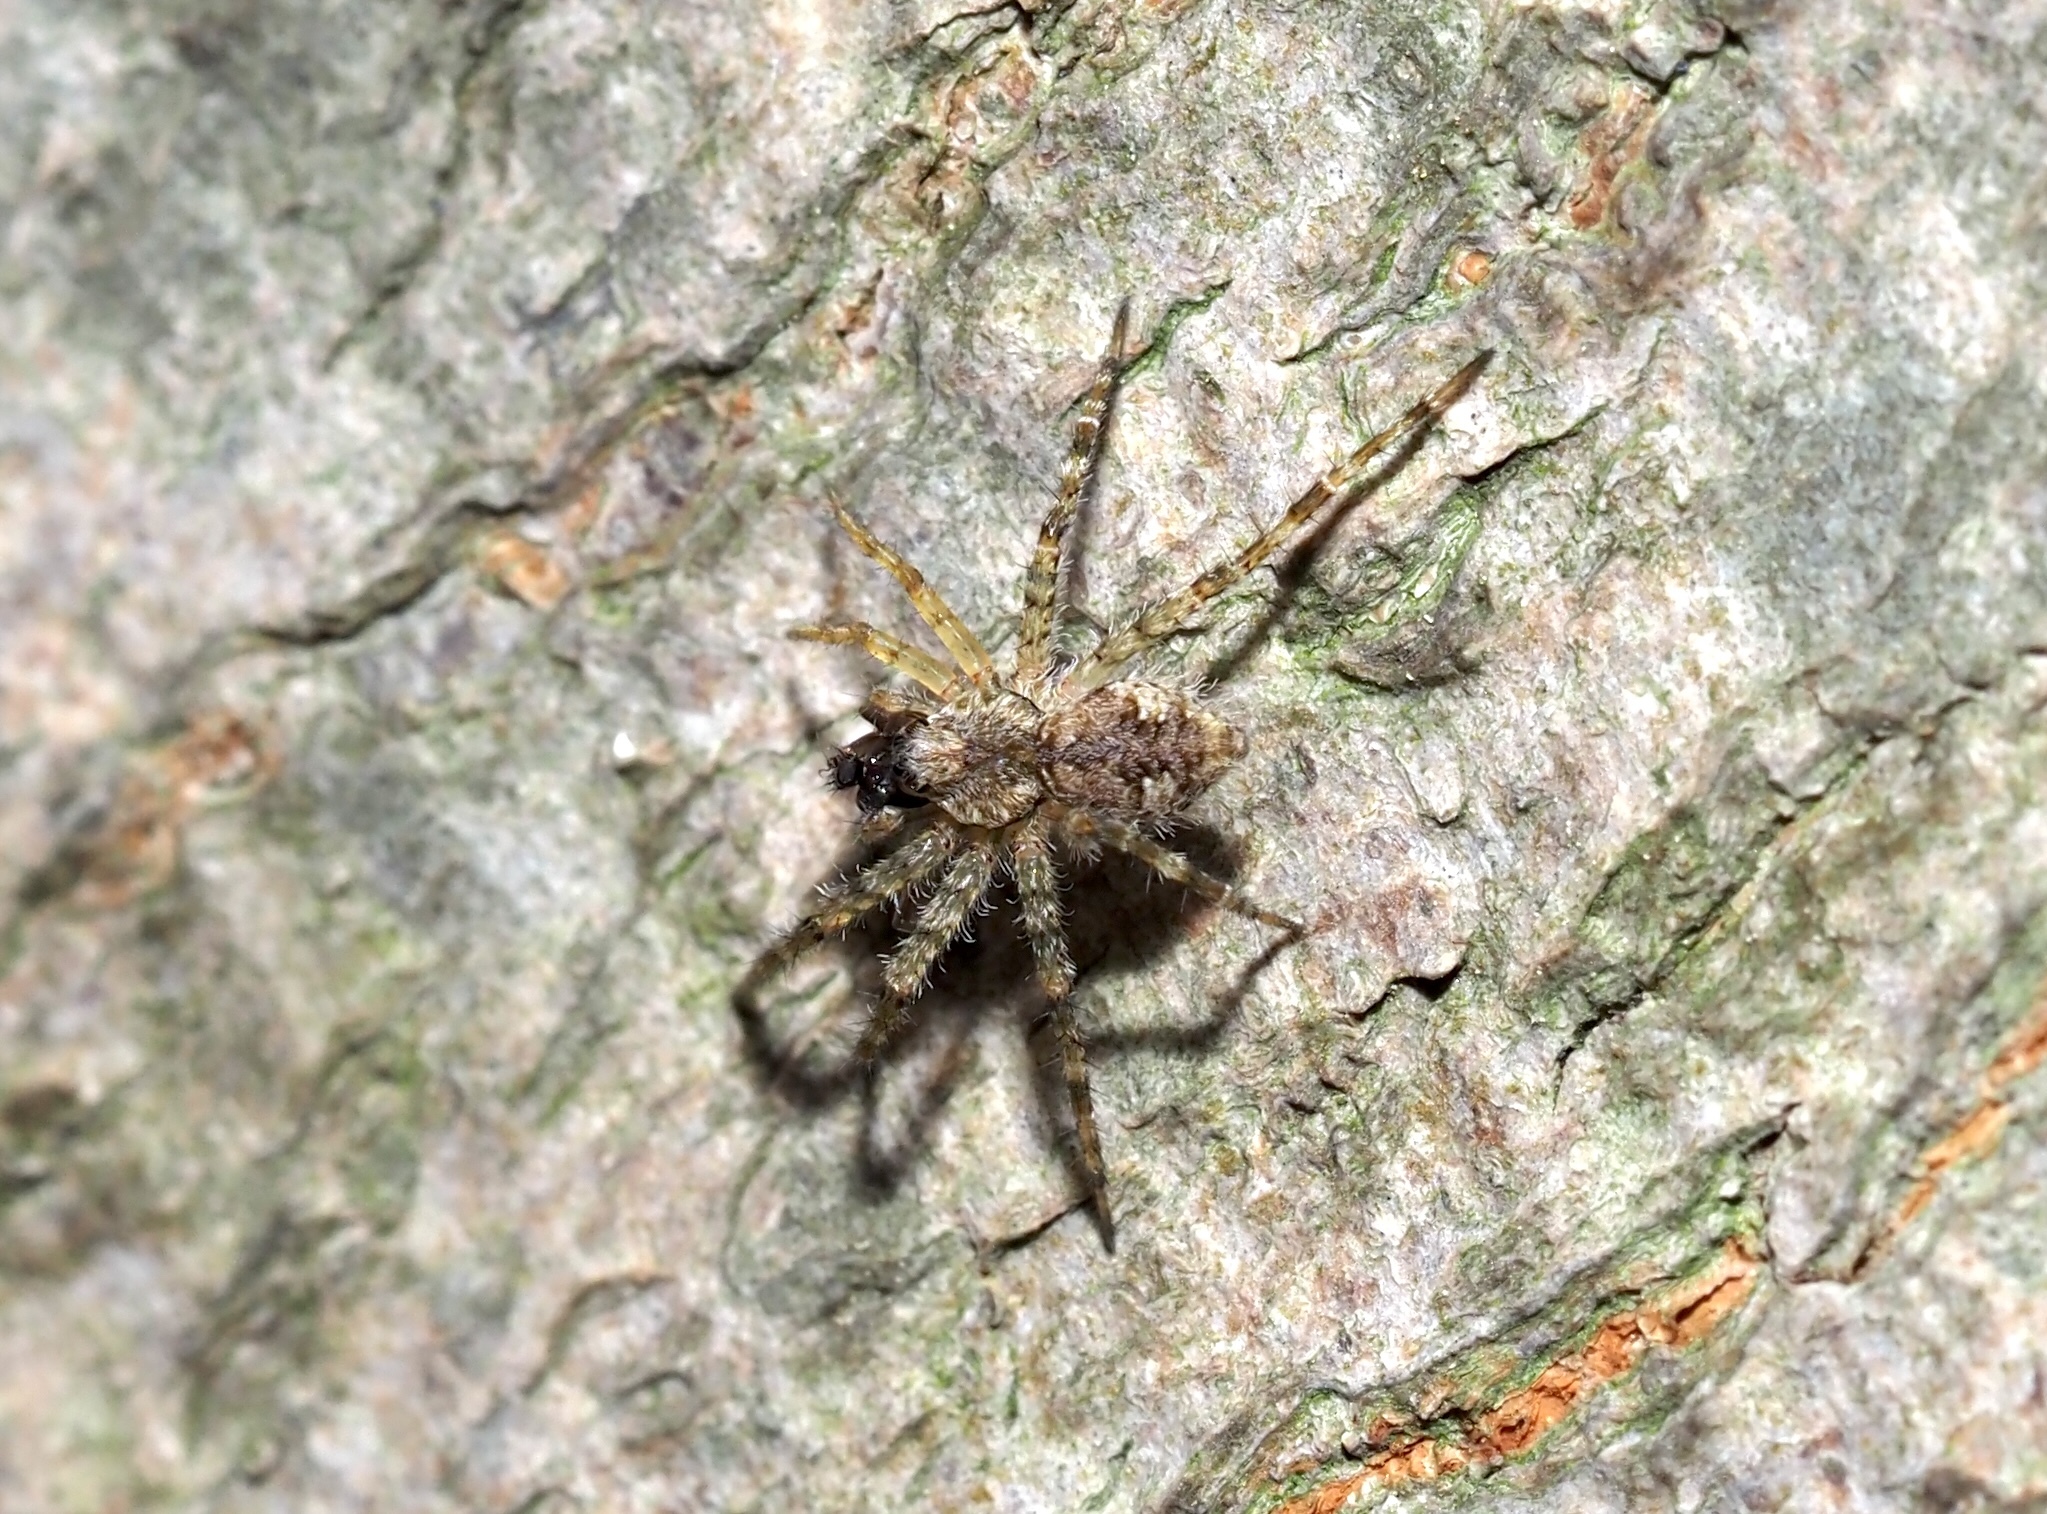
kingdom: Animalia
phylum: Arthropoda
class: Arachnida
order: Araneae
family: Pisauridae
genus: Dolomedes
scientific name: Dolomedes albineus
